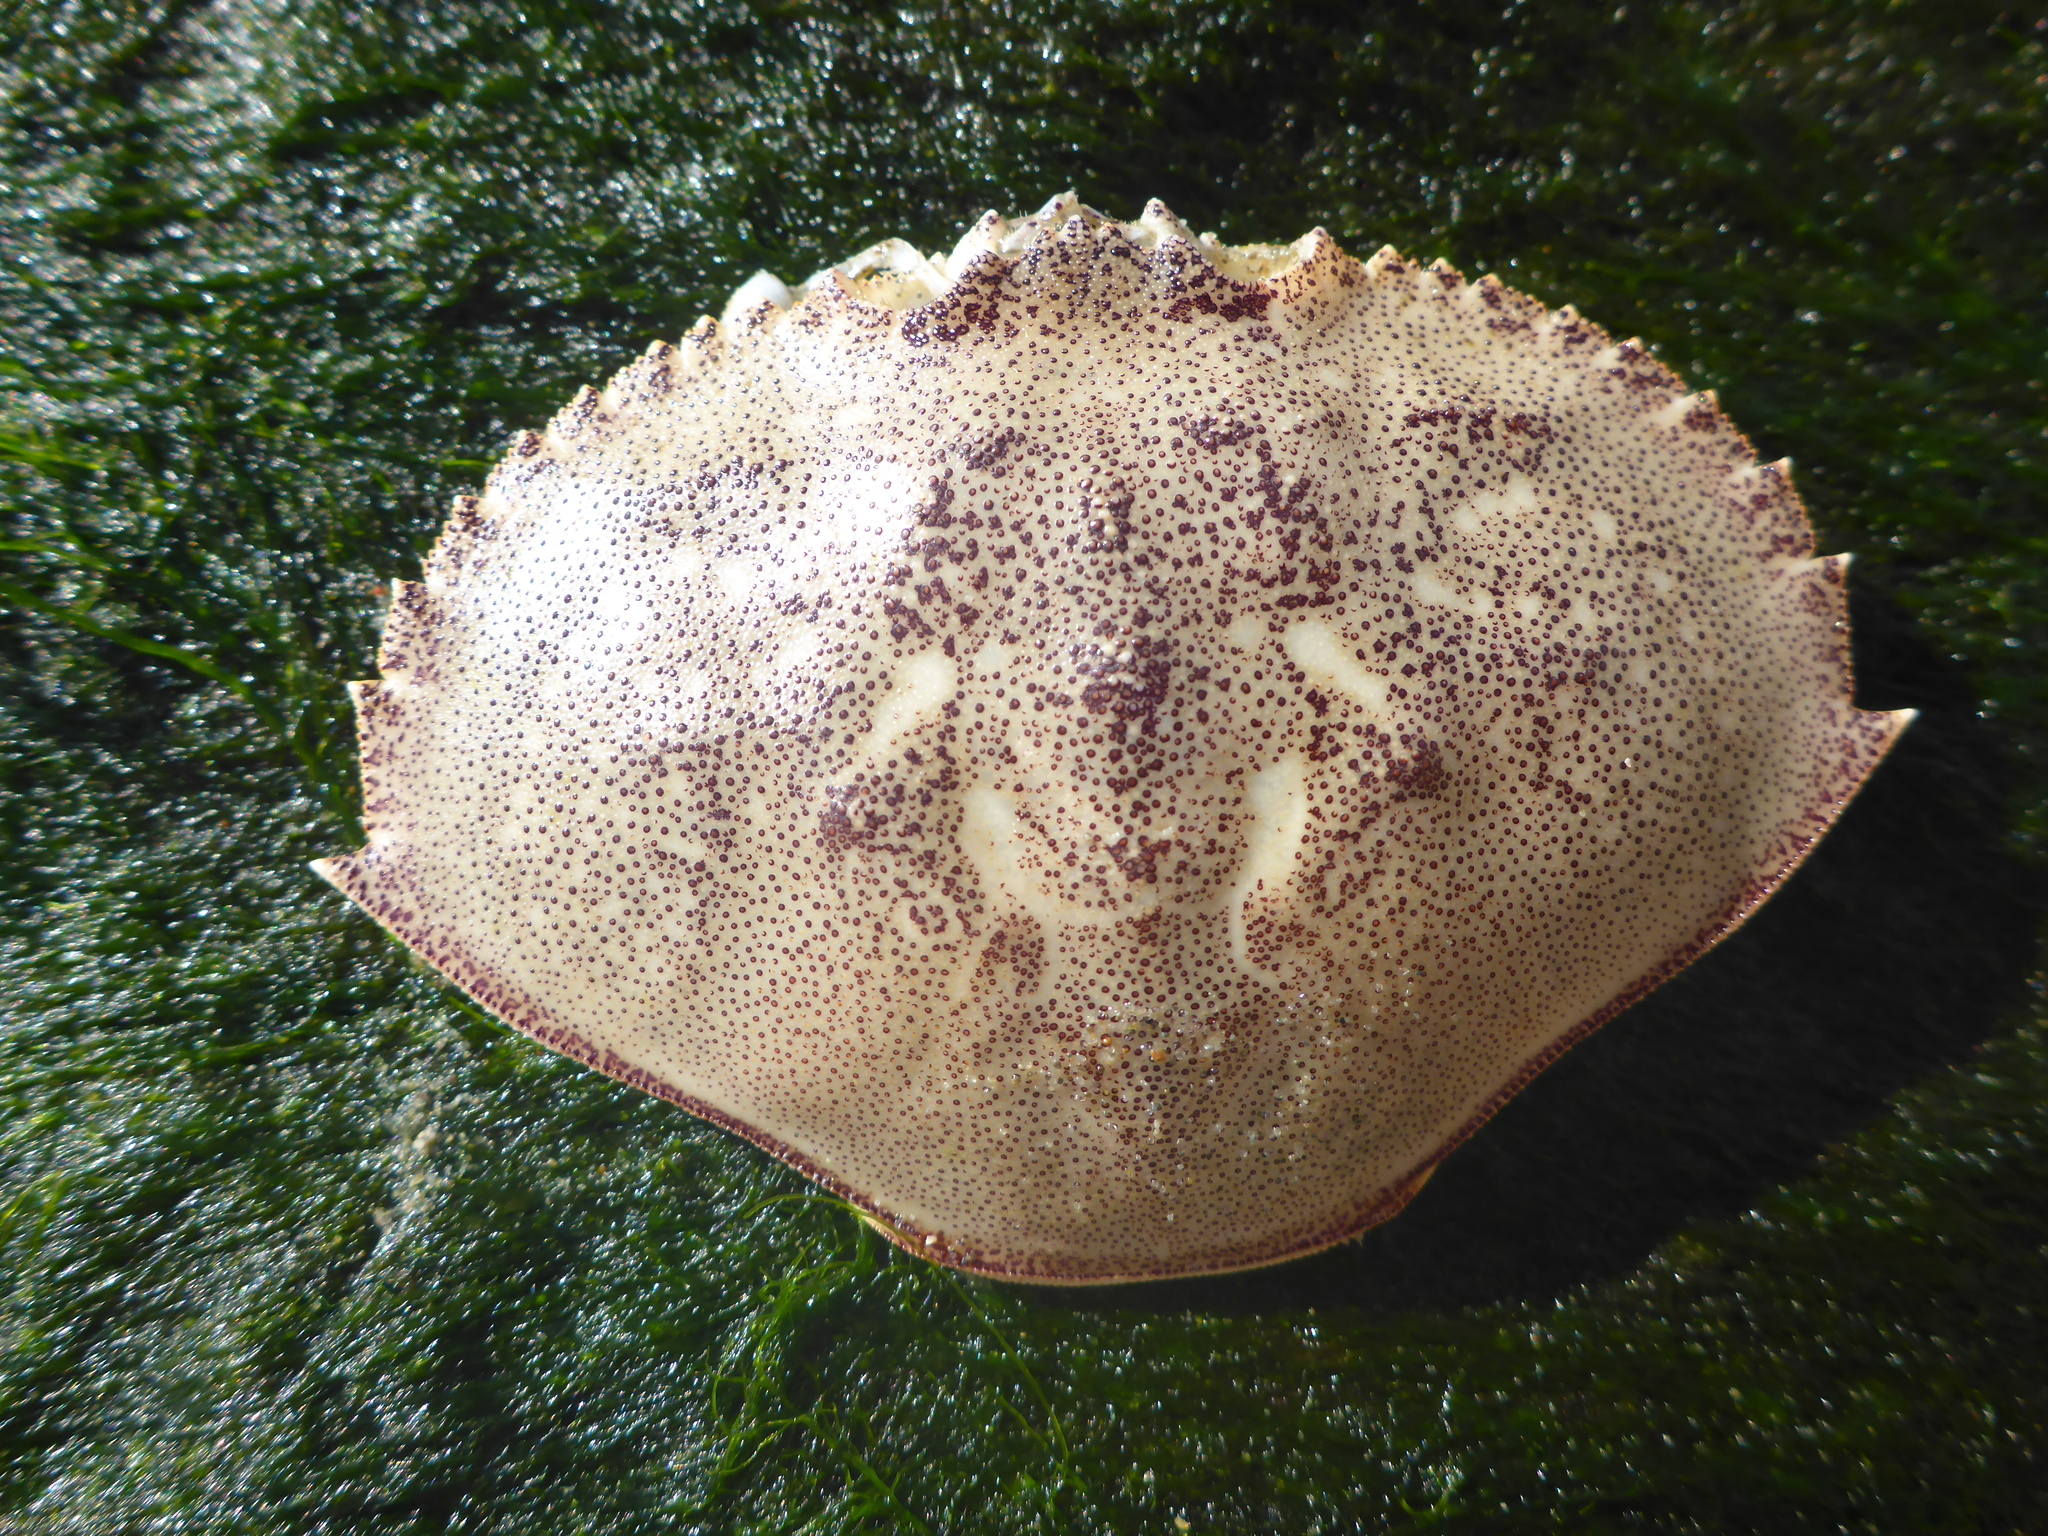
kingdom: Animalia
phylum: Arthropoda
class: Malacostraca
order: Decapoda
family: Cancridae
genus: Metacarcinus
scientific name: Metacarcinus magister
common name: Californian crab
